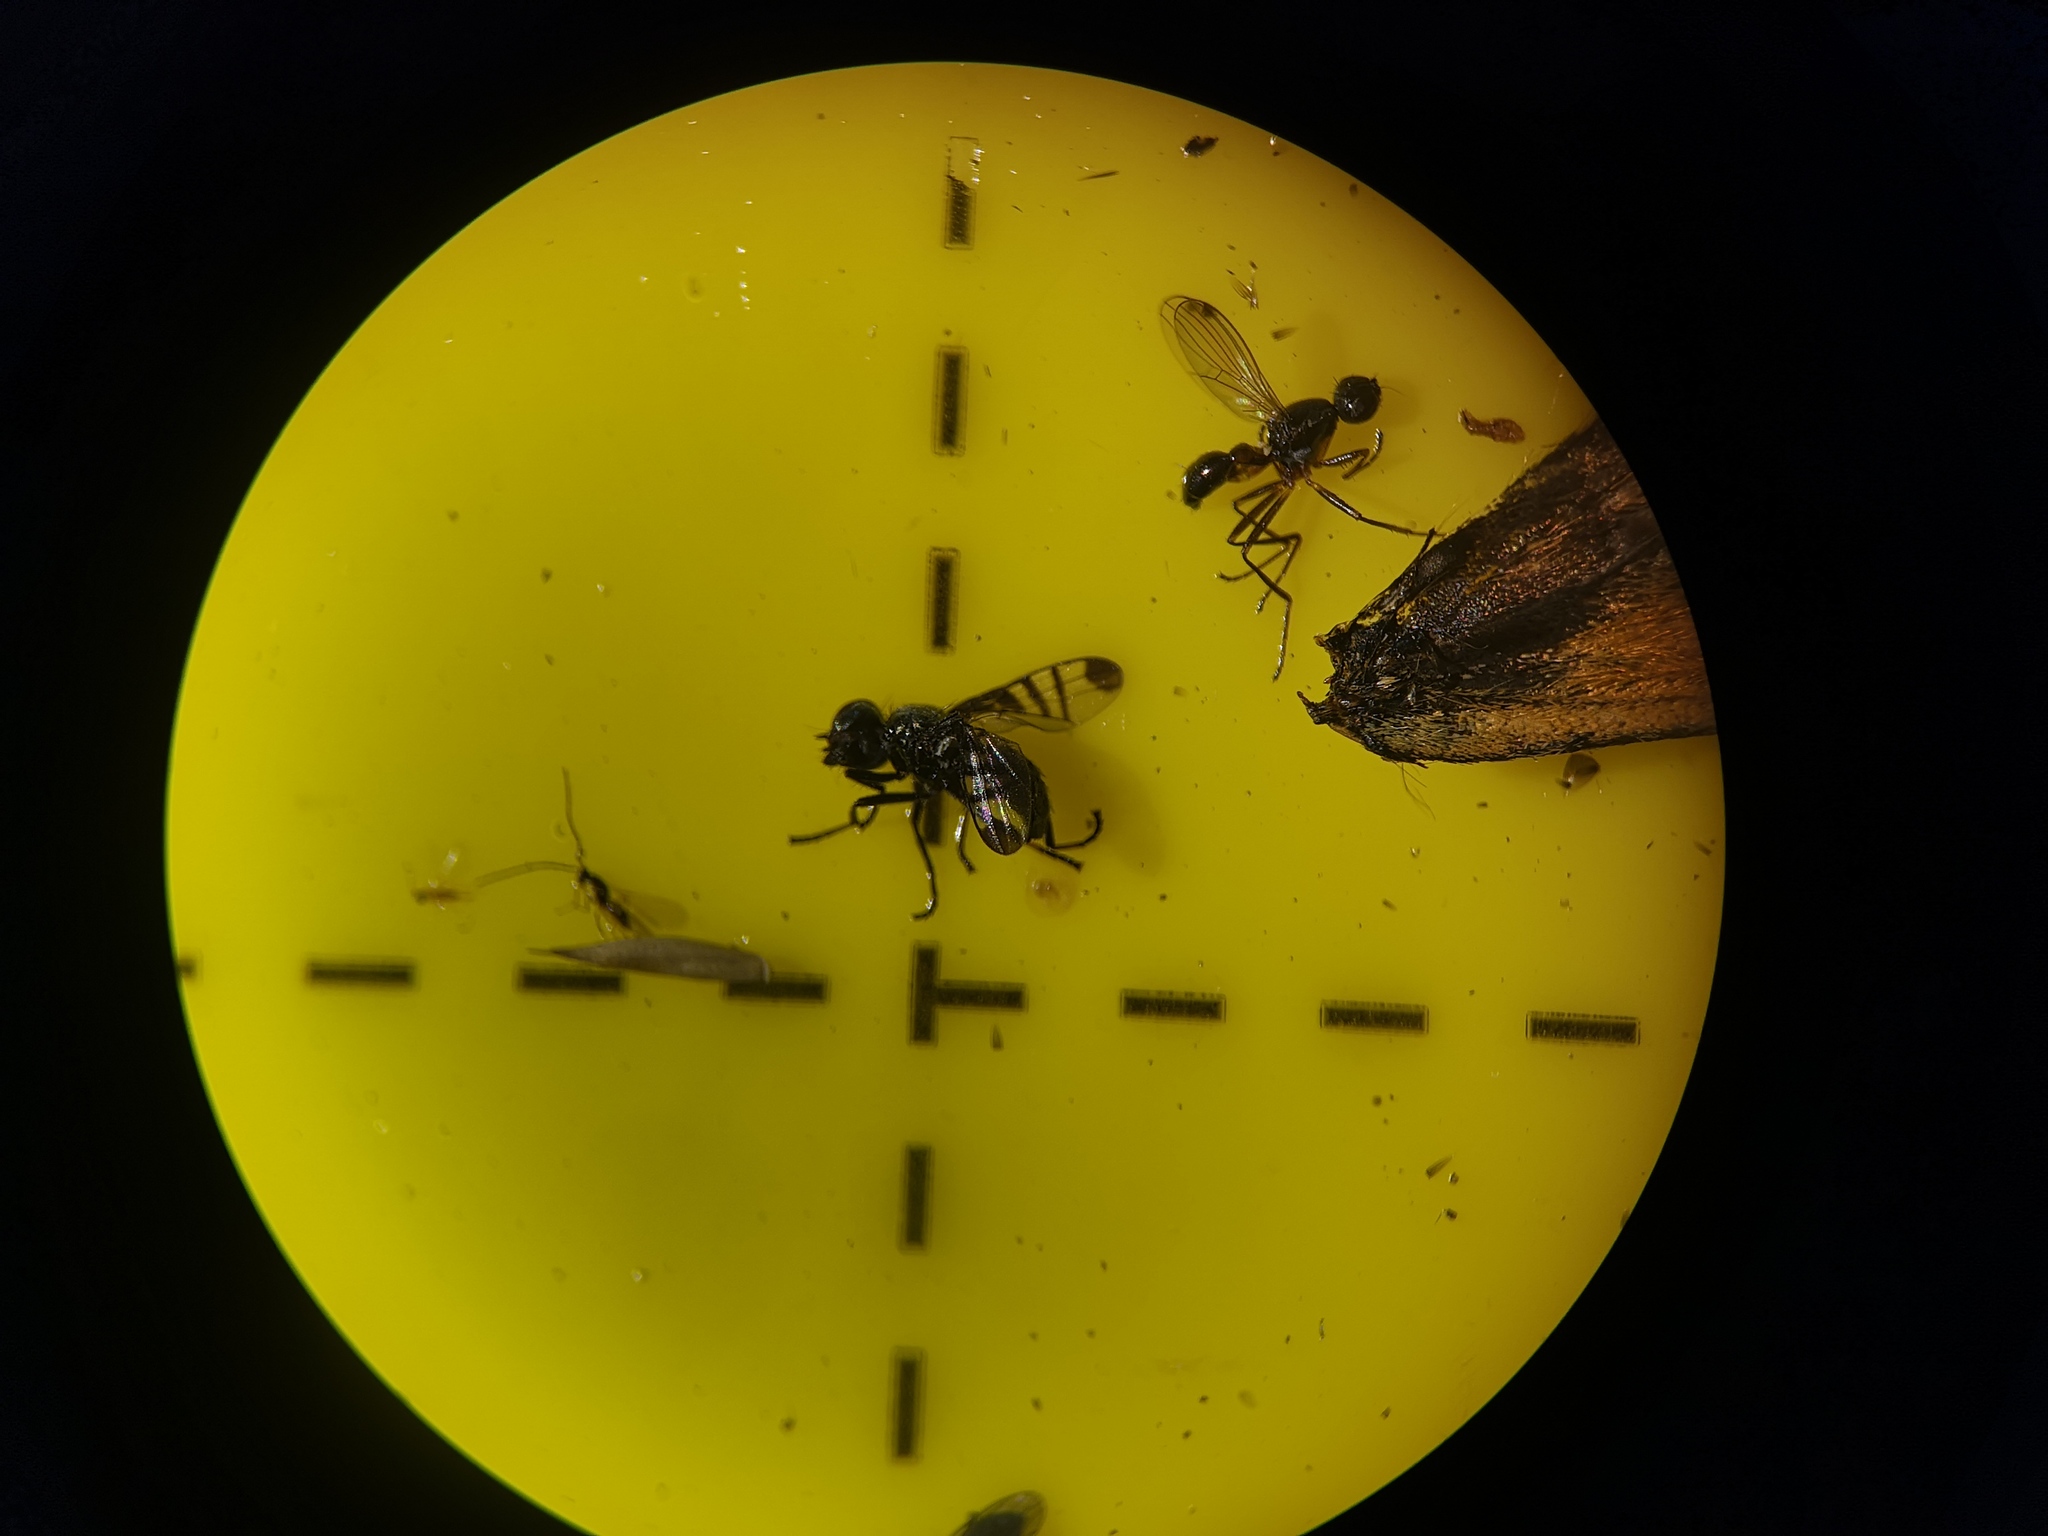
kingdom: Animalia
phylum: Arthropoda
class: Insecta
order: Diptera
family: Platystomatidae
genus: Rivellia
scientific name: Rivellia syngenesiae
